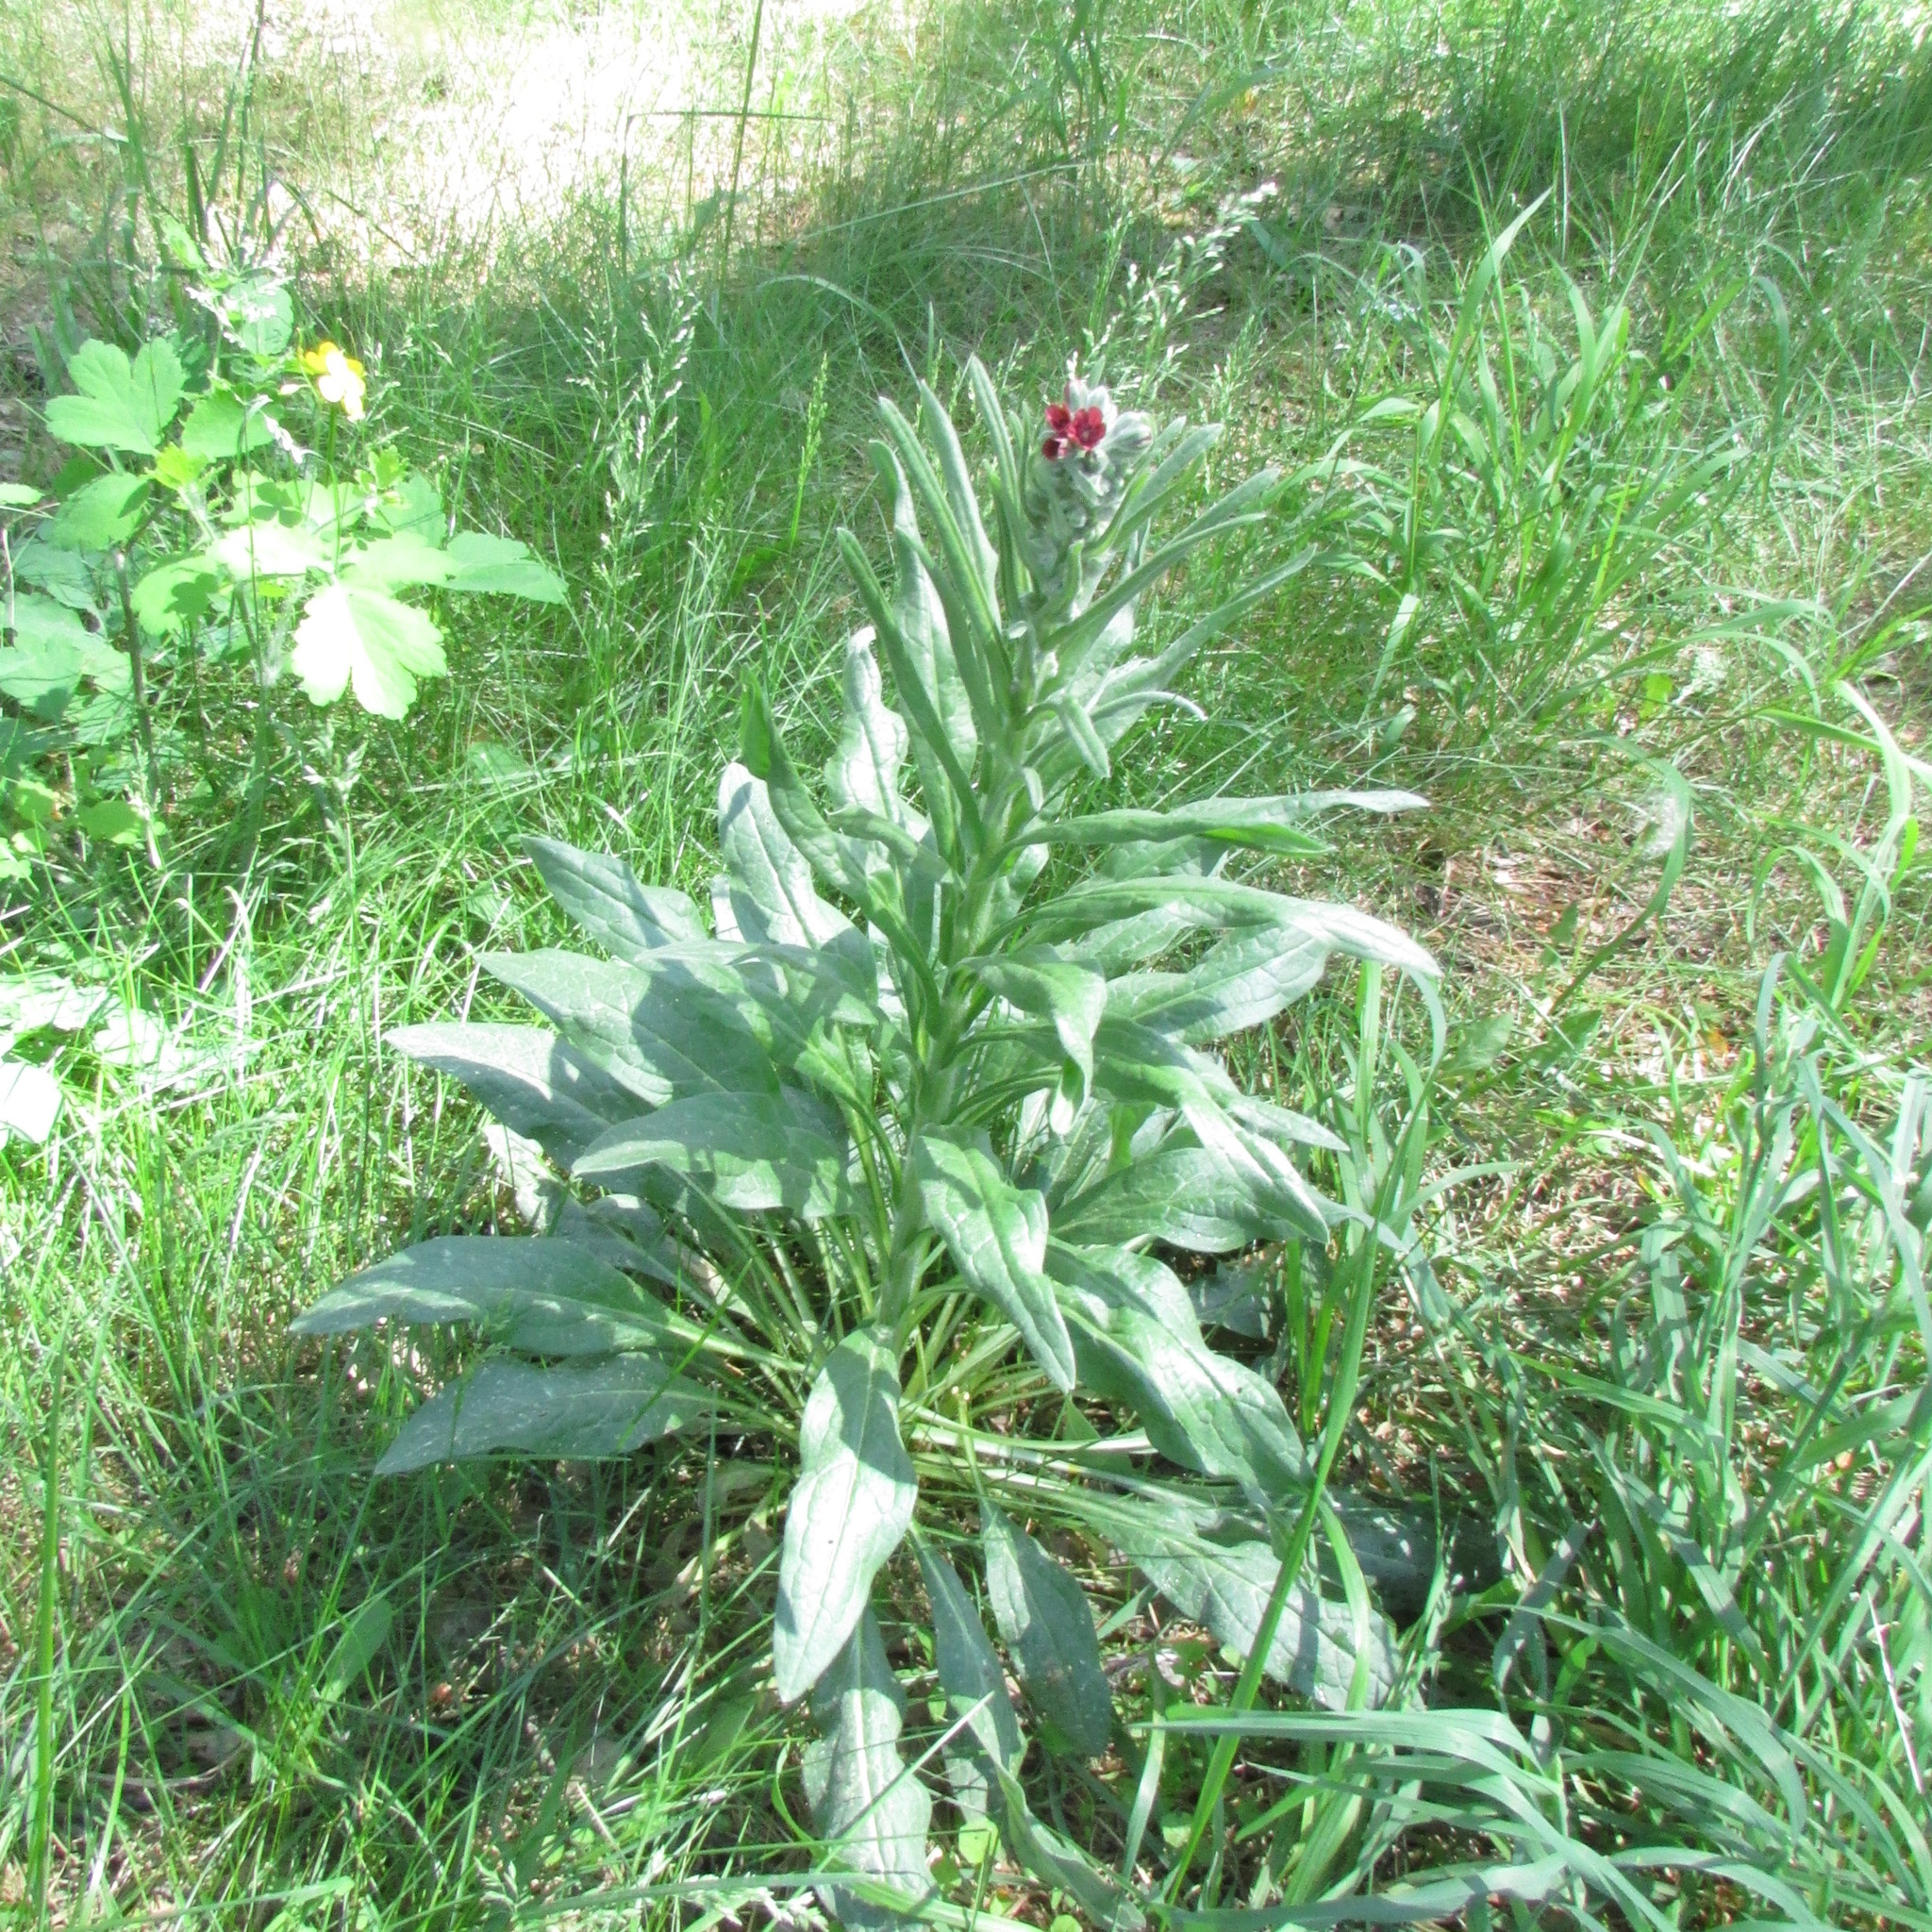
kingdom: Plantae
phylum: Tracheophyta
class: Magnoliopsida
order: Boraginales
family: Boraginaceae
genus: Cynoglossum
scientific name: Cynoglossum officinale
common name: Hound's-tongue
